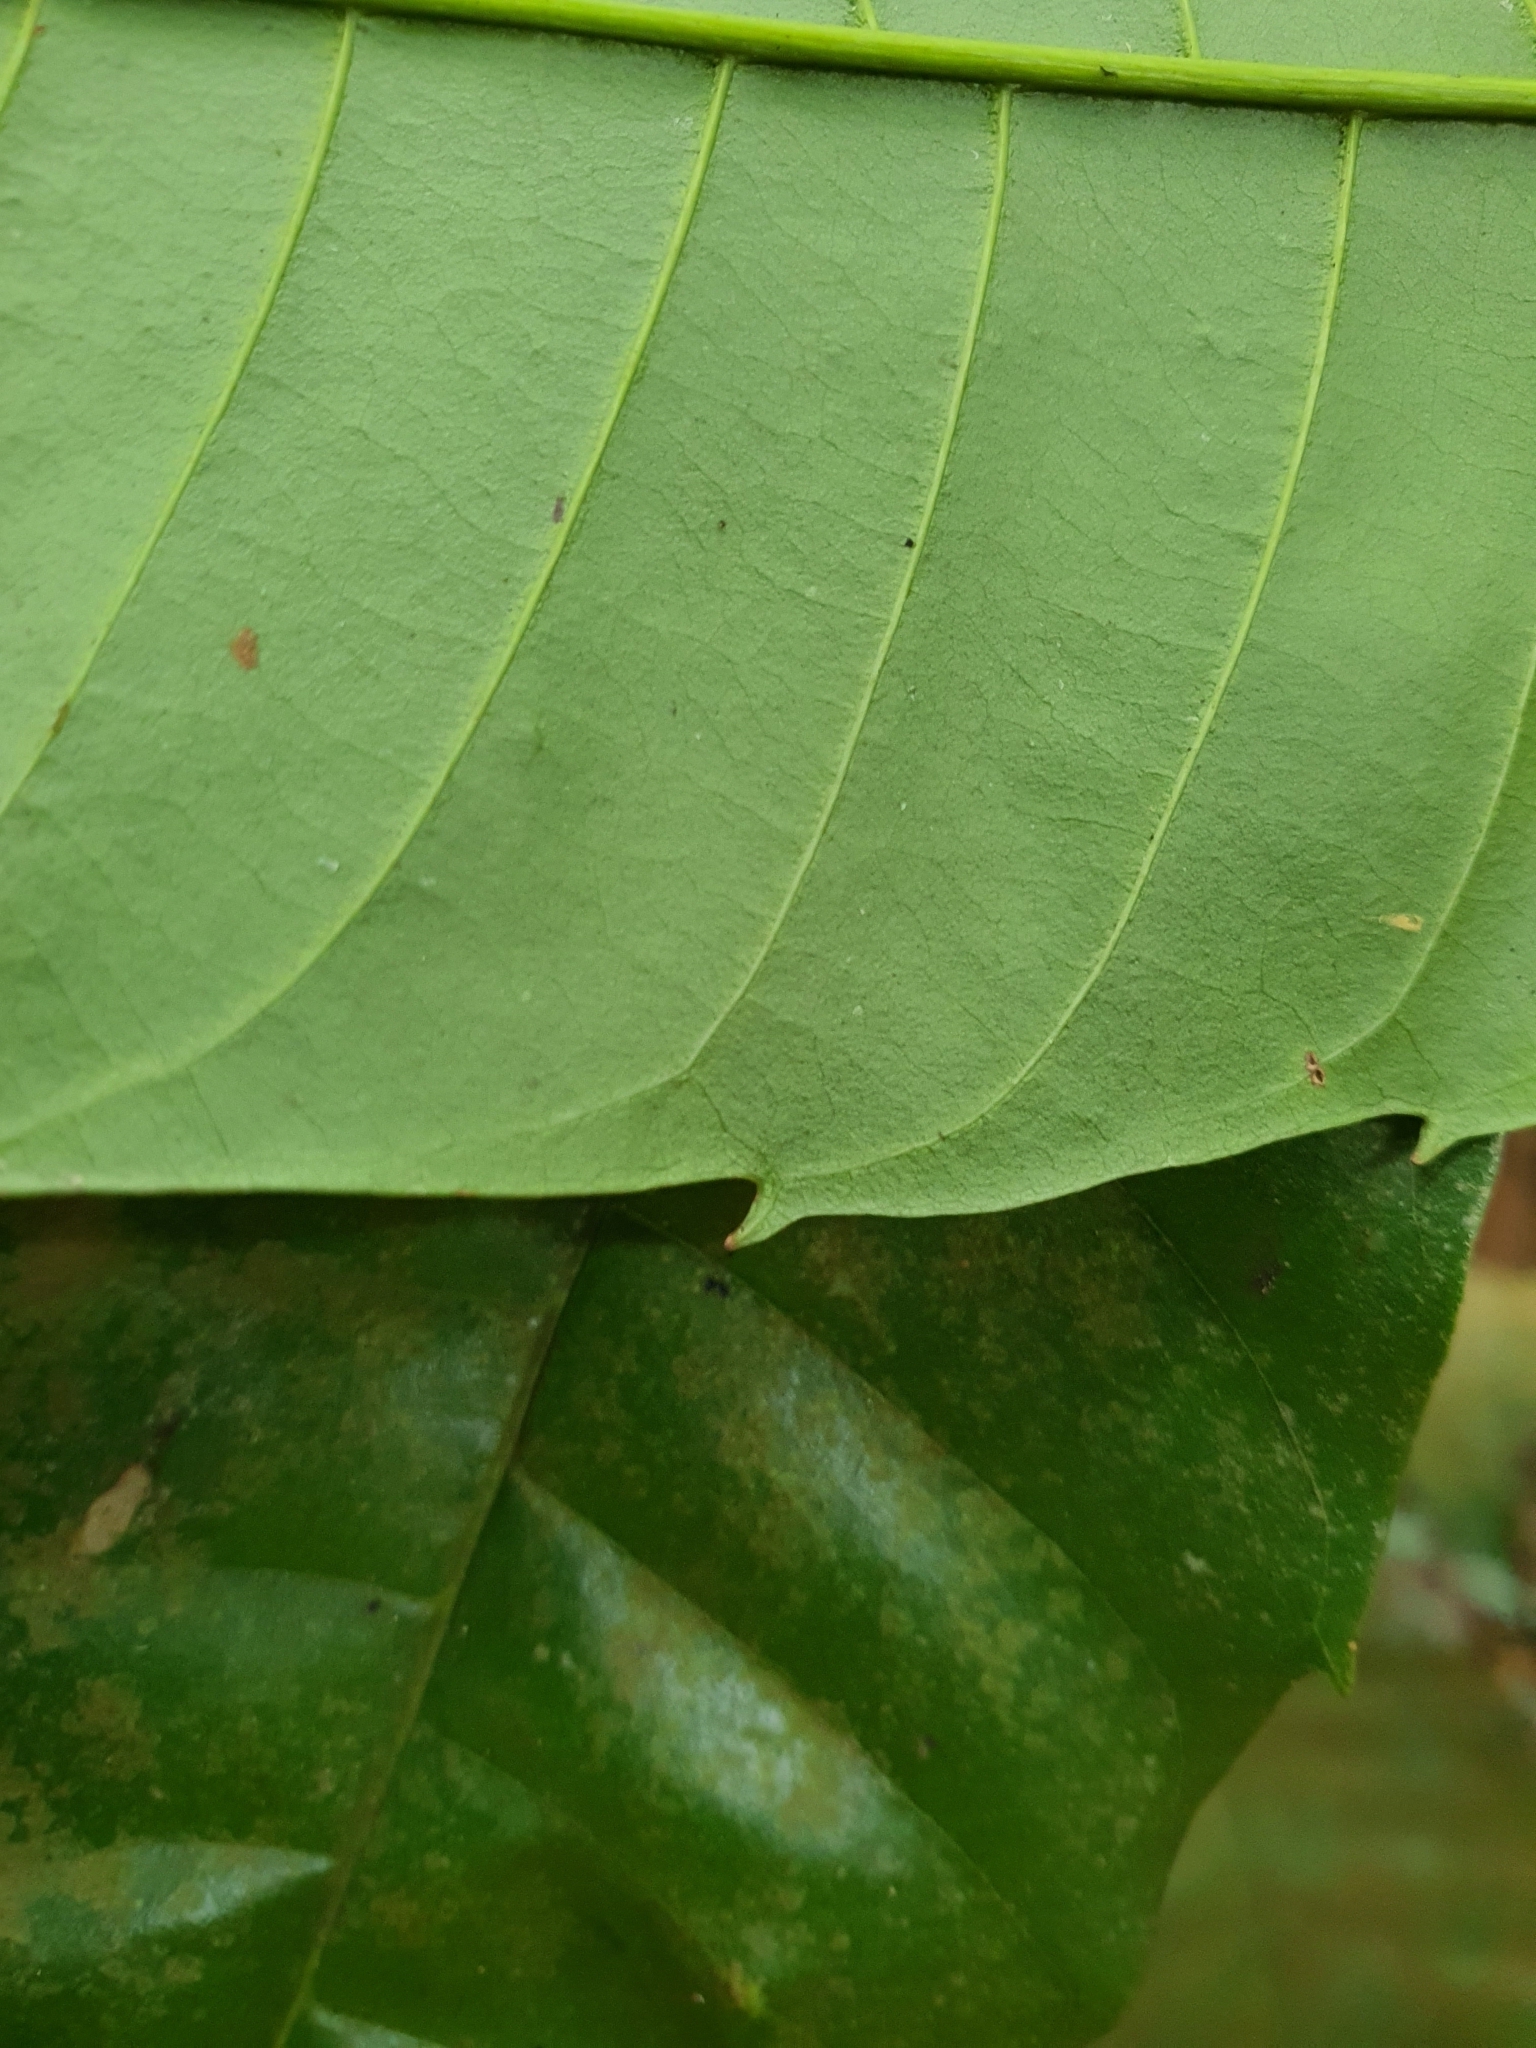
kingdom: Plantae
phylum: Tracheophyta
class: Magnoliopsida
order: Sapindales
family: Sapindaceae
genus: Paranephelium
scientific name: Paranephelium macrophyllum
